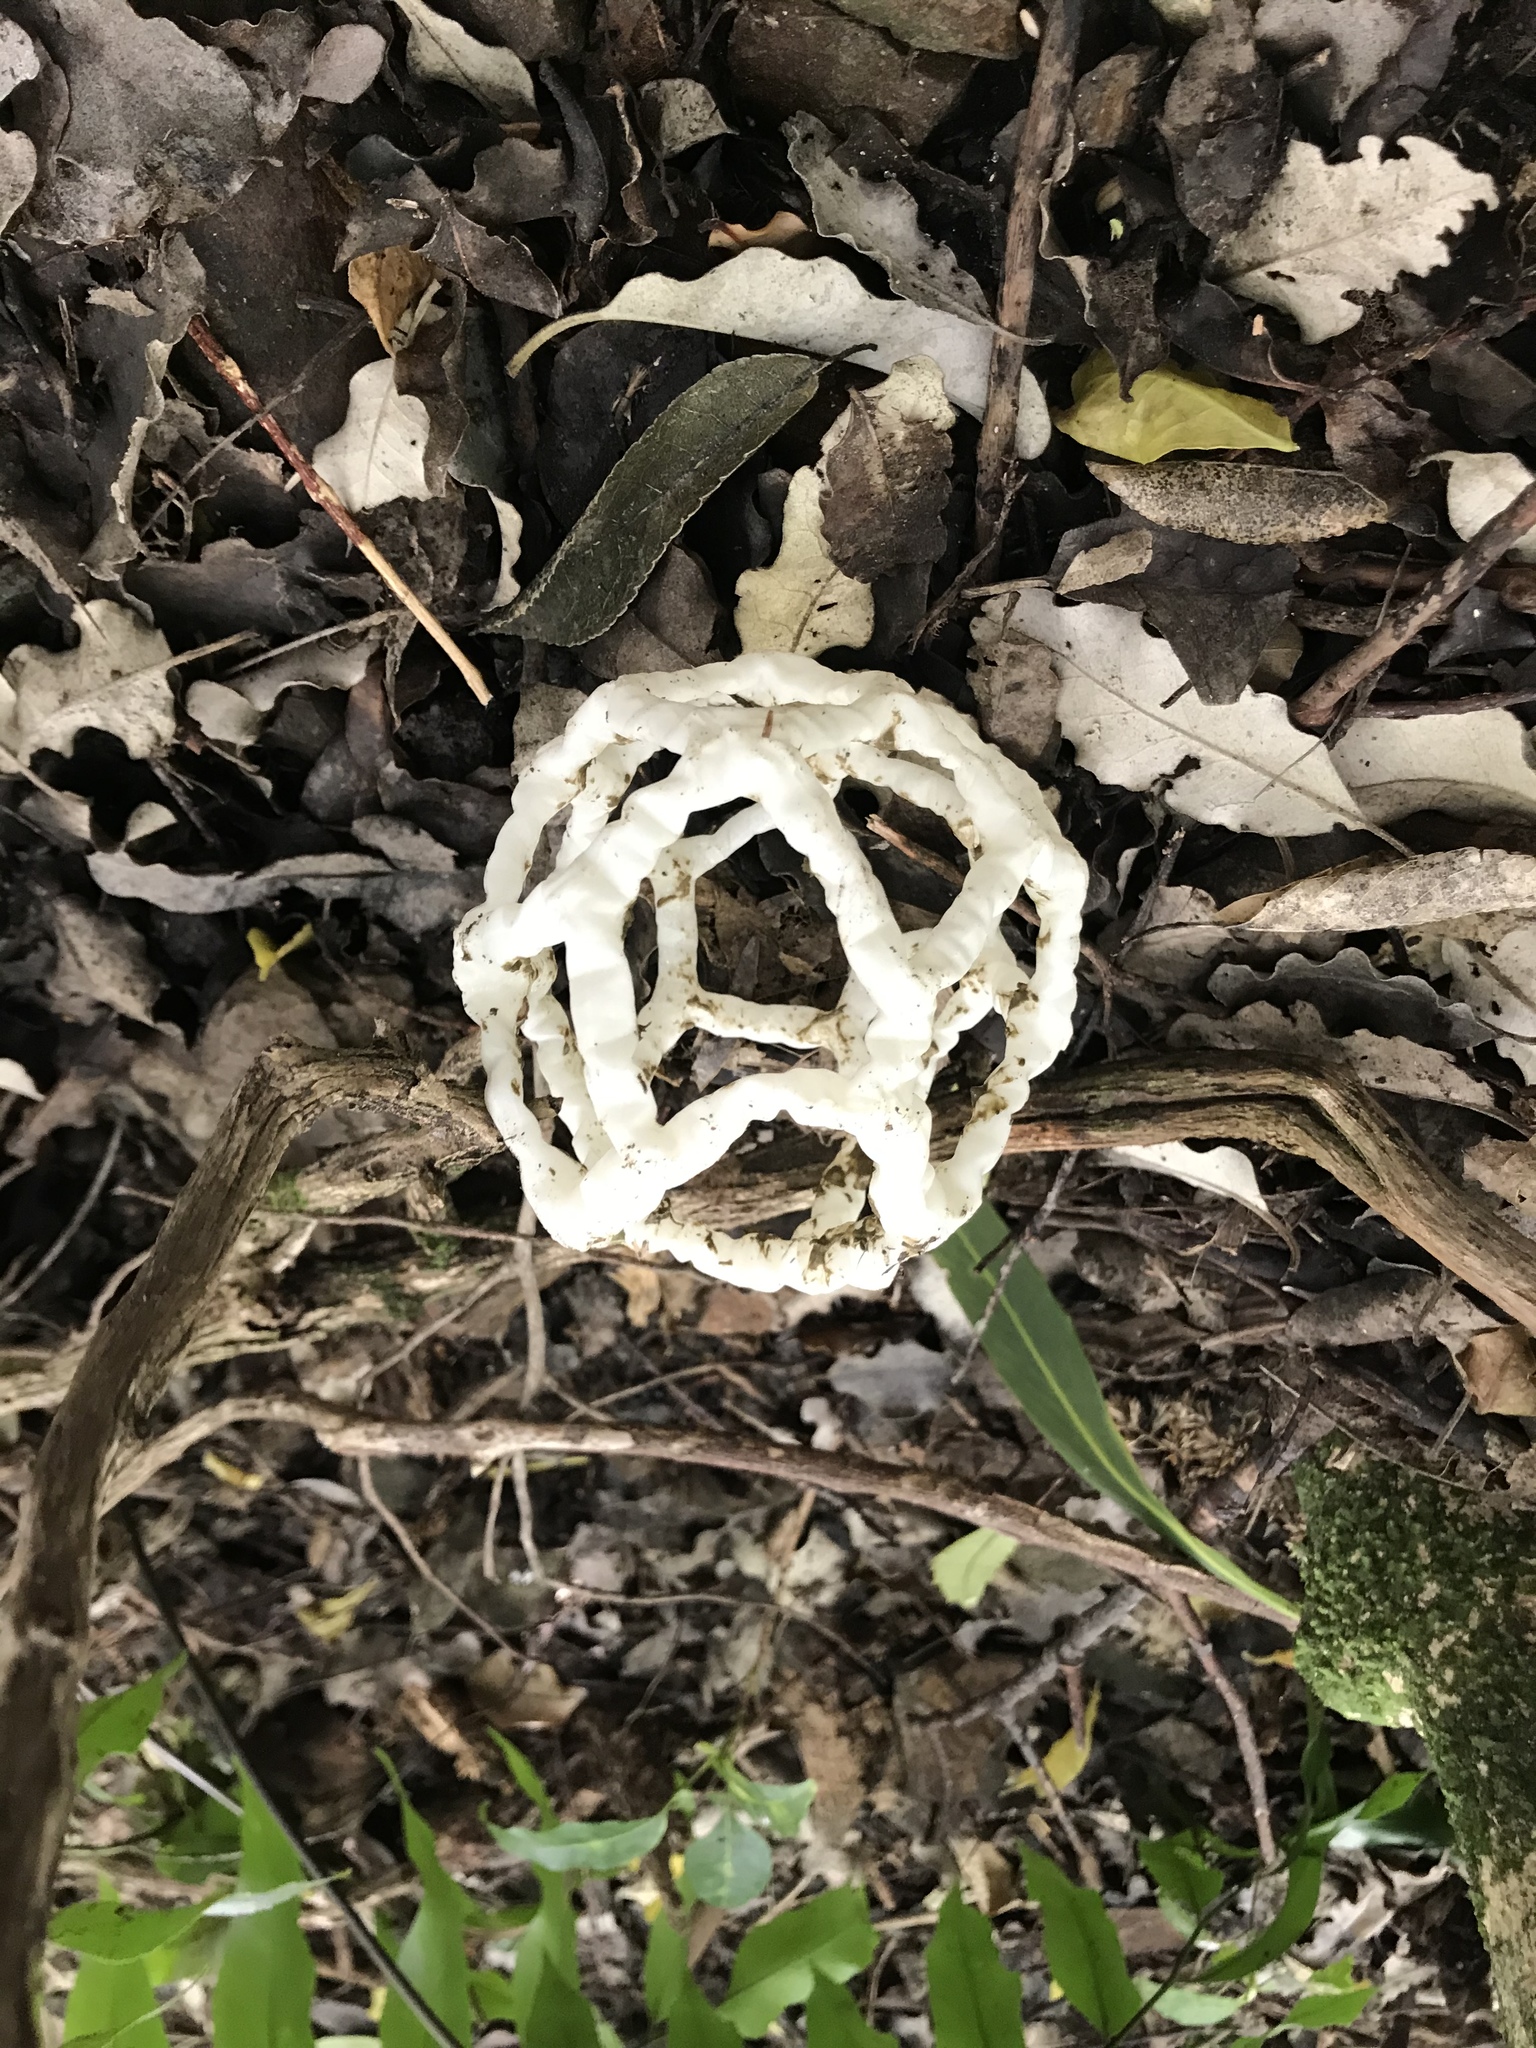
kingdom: Fungi
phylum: Basidiomycota
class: Agaricomycetes
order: Phallales
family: Phallaceae
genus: Ileodictyon
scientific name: Ileodictyon cibarium
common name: Basket fungus
